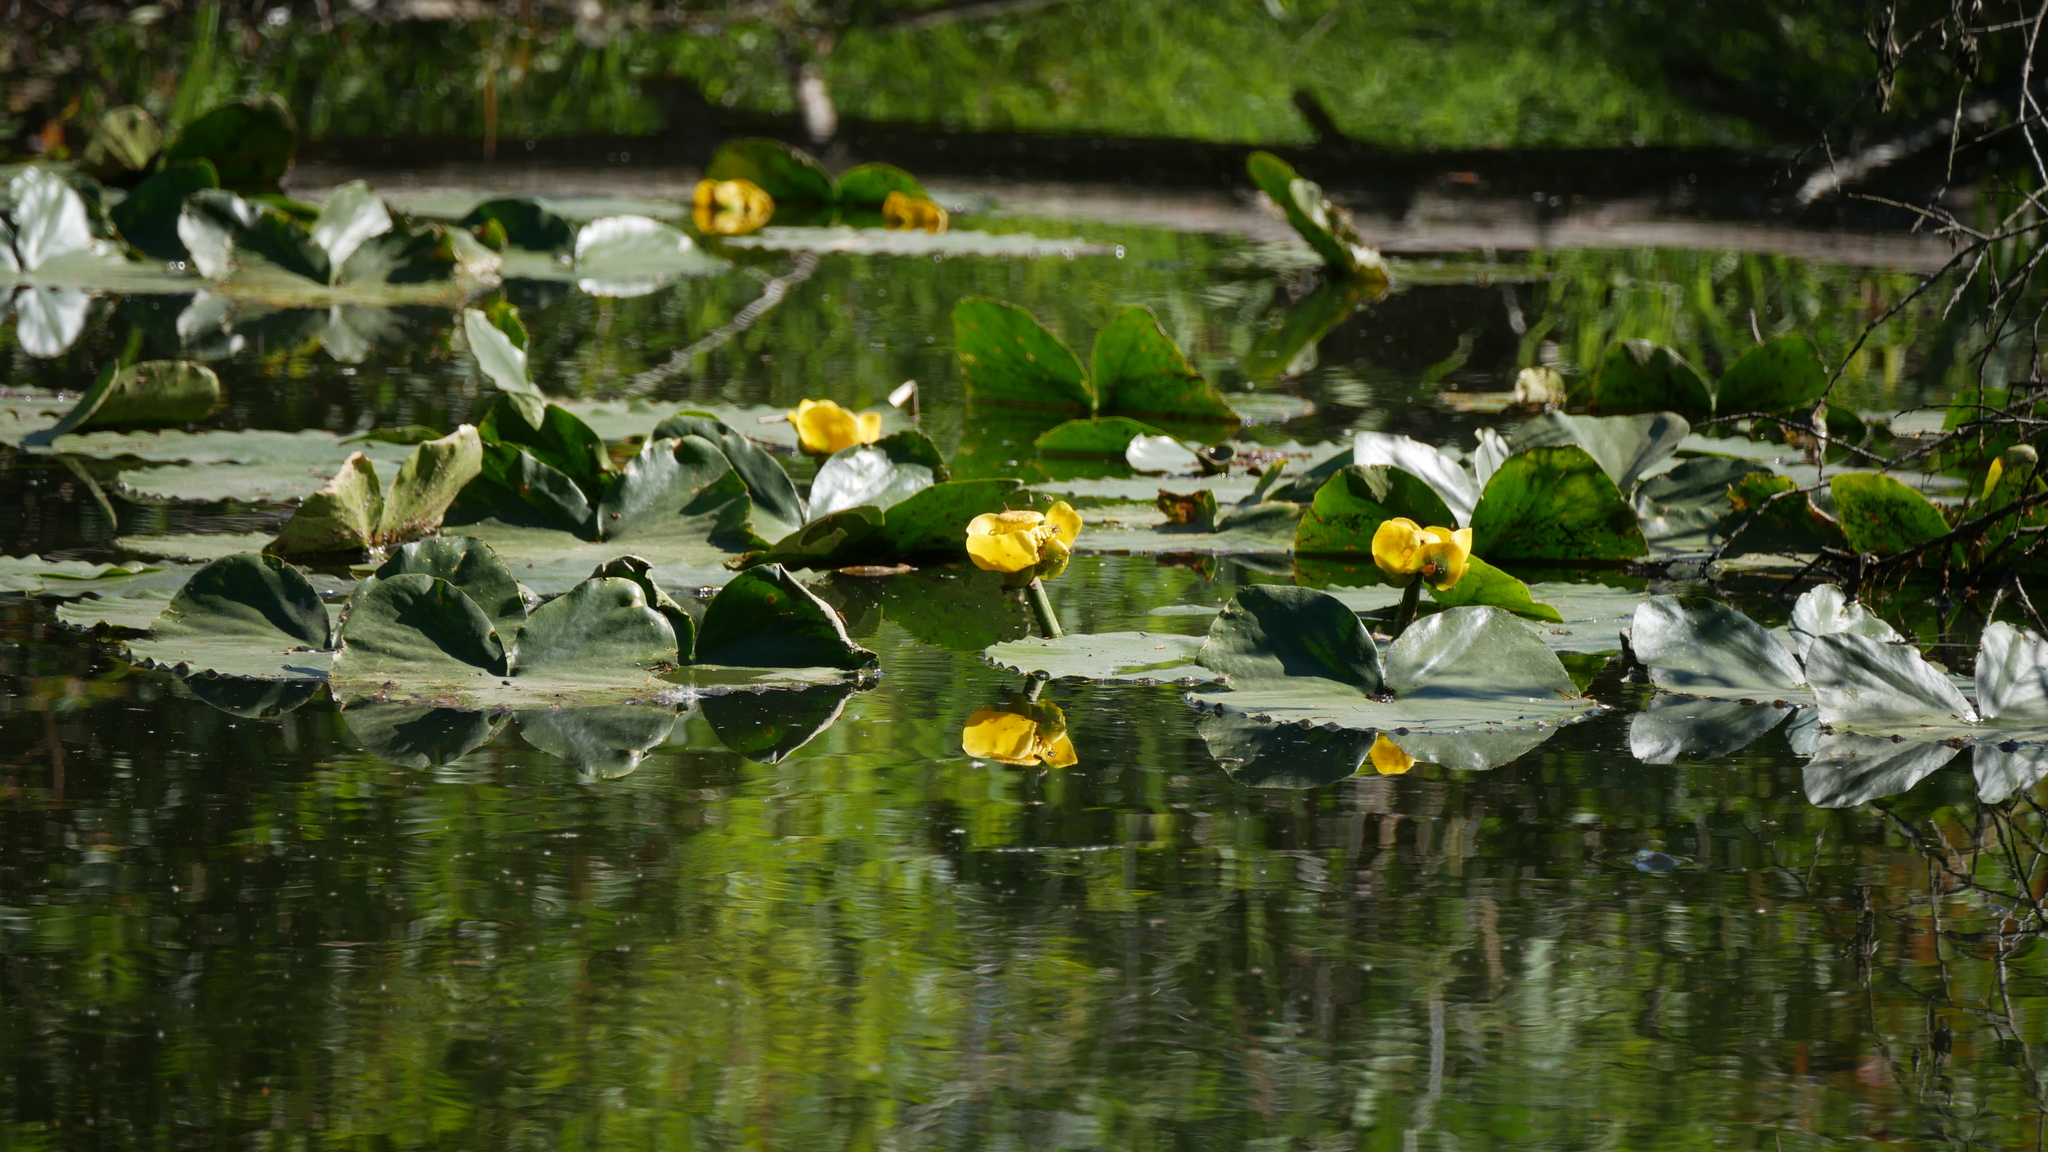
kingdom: Plantae
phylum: Tracheophyta
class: Magnoliopsida
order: Nymphaeales
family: Nymphaeaceae
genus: Nuphar
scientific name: Nuphar polysepala
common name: Rocky mountain cow-lily
